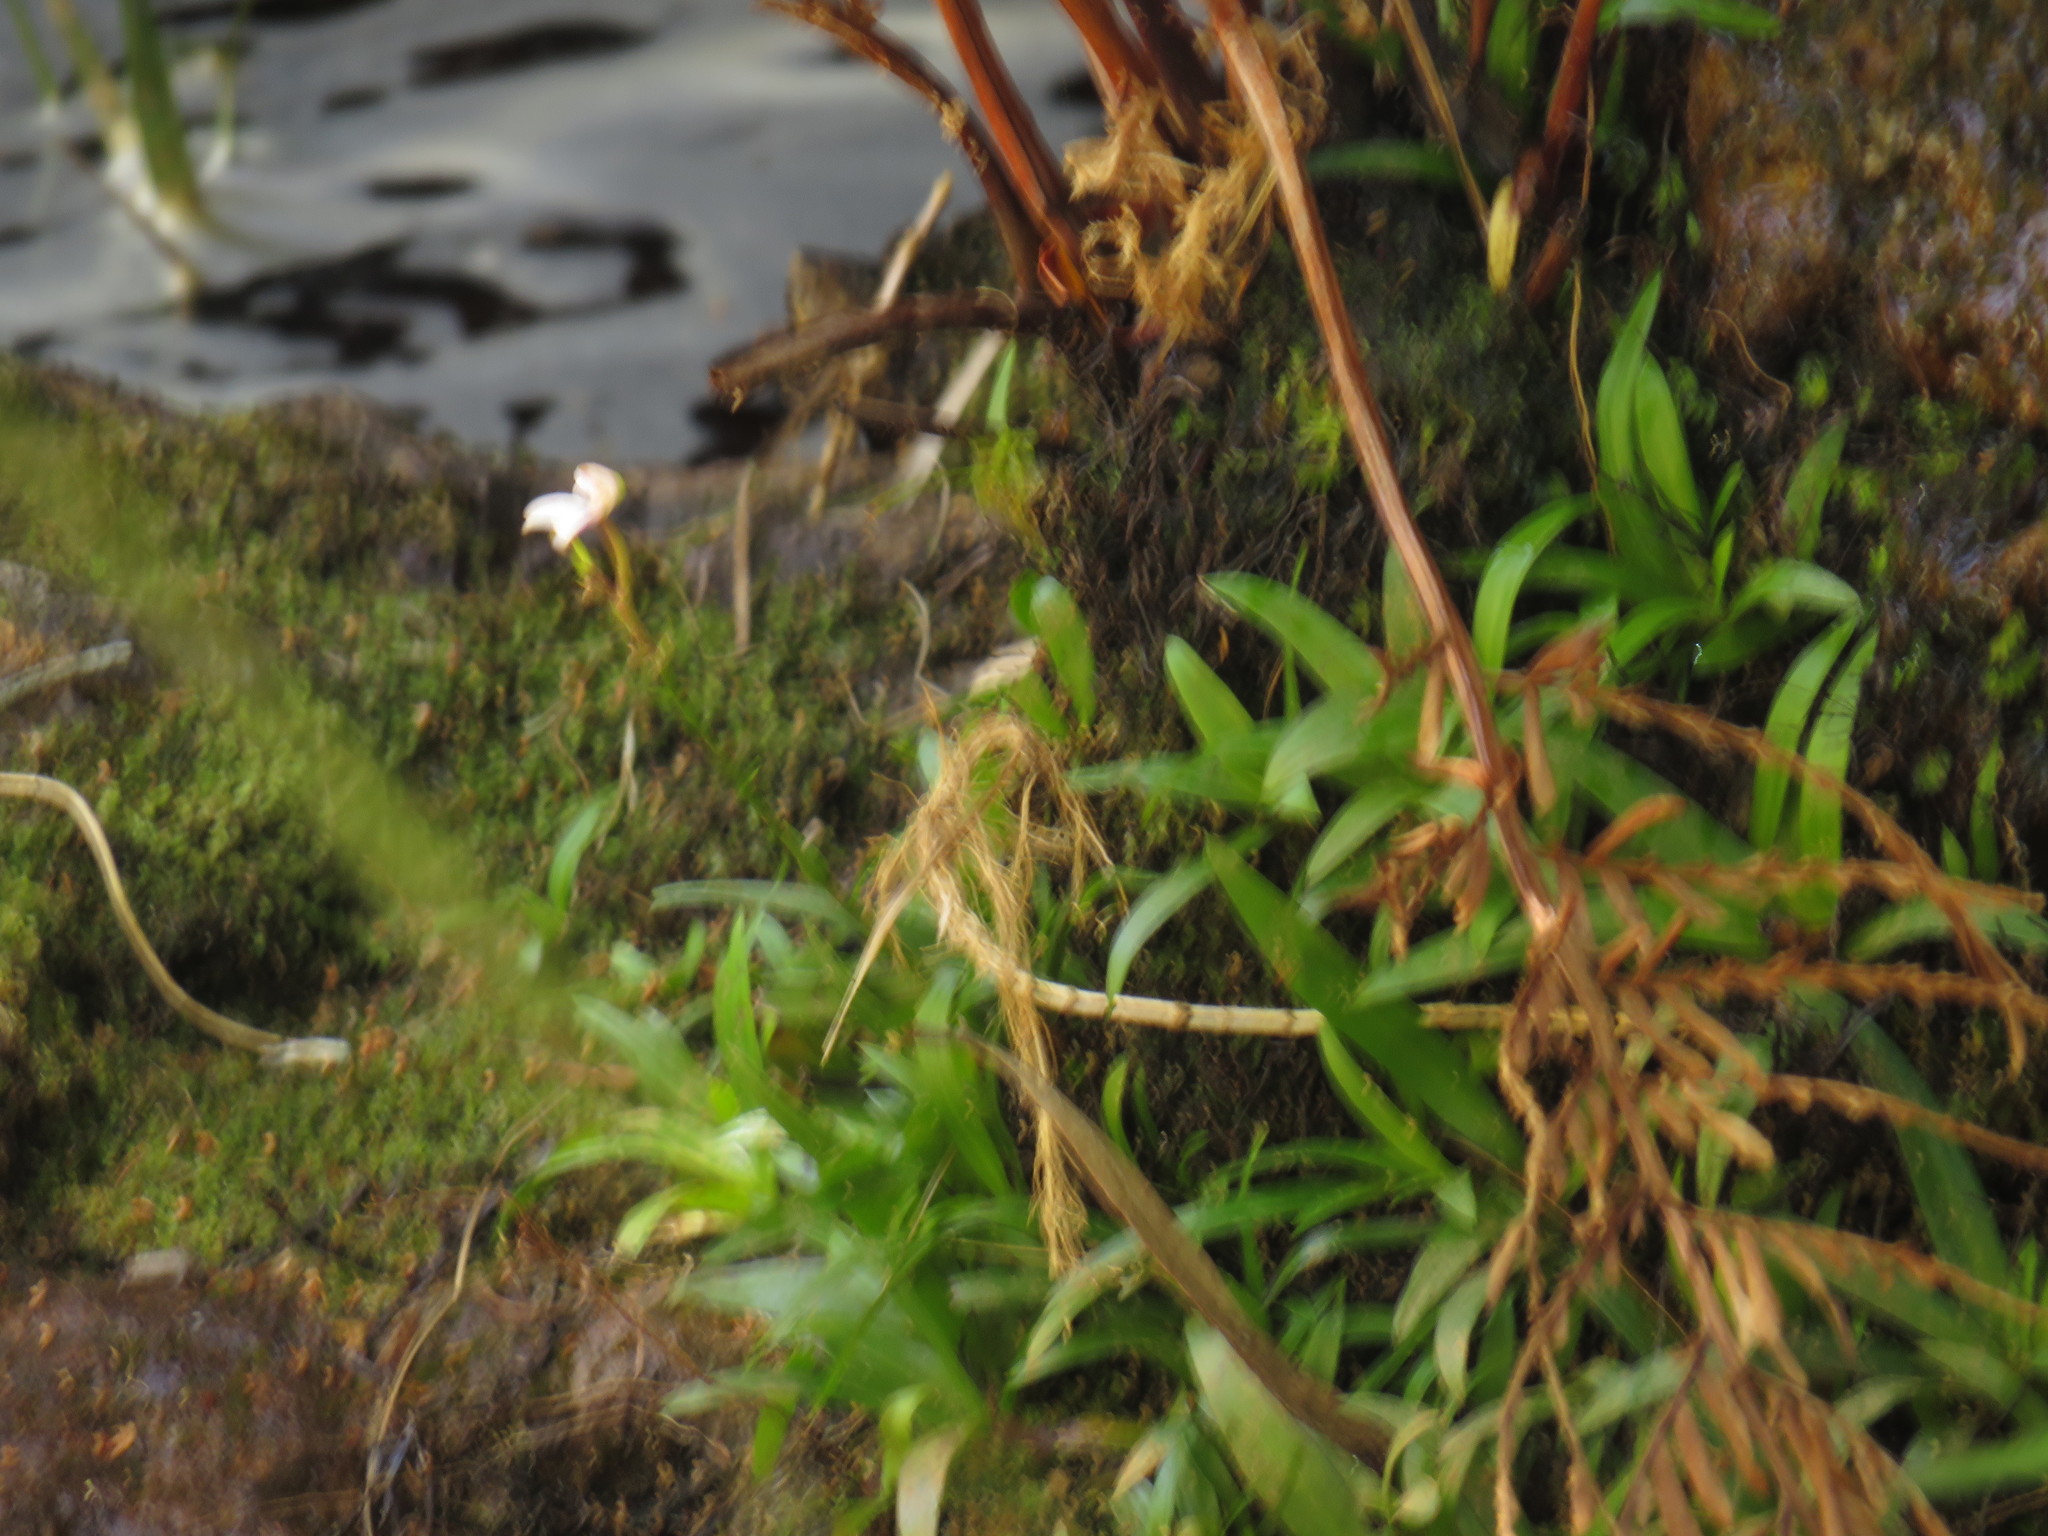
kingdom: Plantae
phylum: Tracheophyta
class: Liliopsida
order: Asparagales
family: Orchidaceae
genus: Disa
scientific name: Disa tripetaloides
